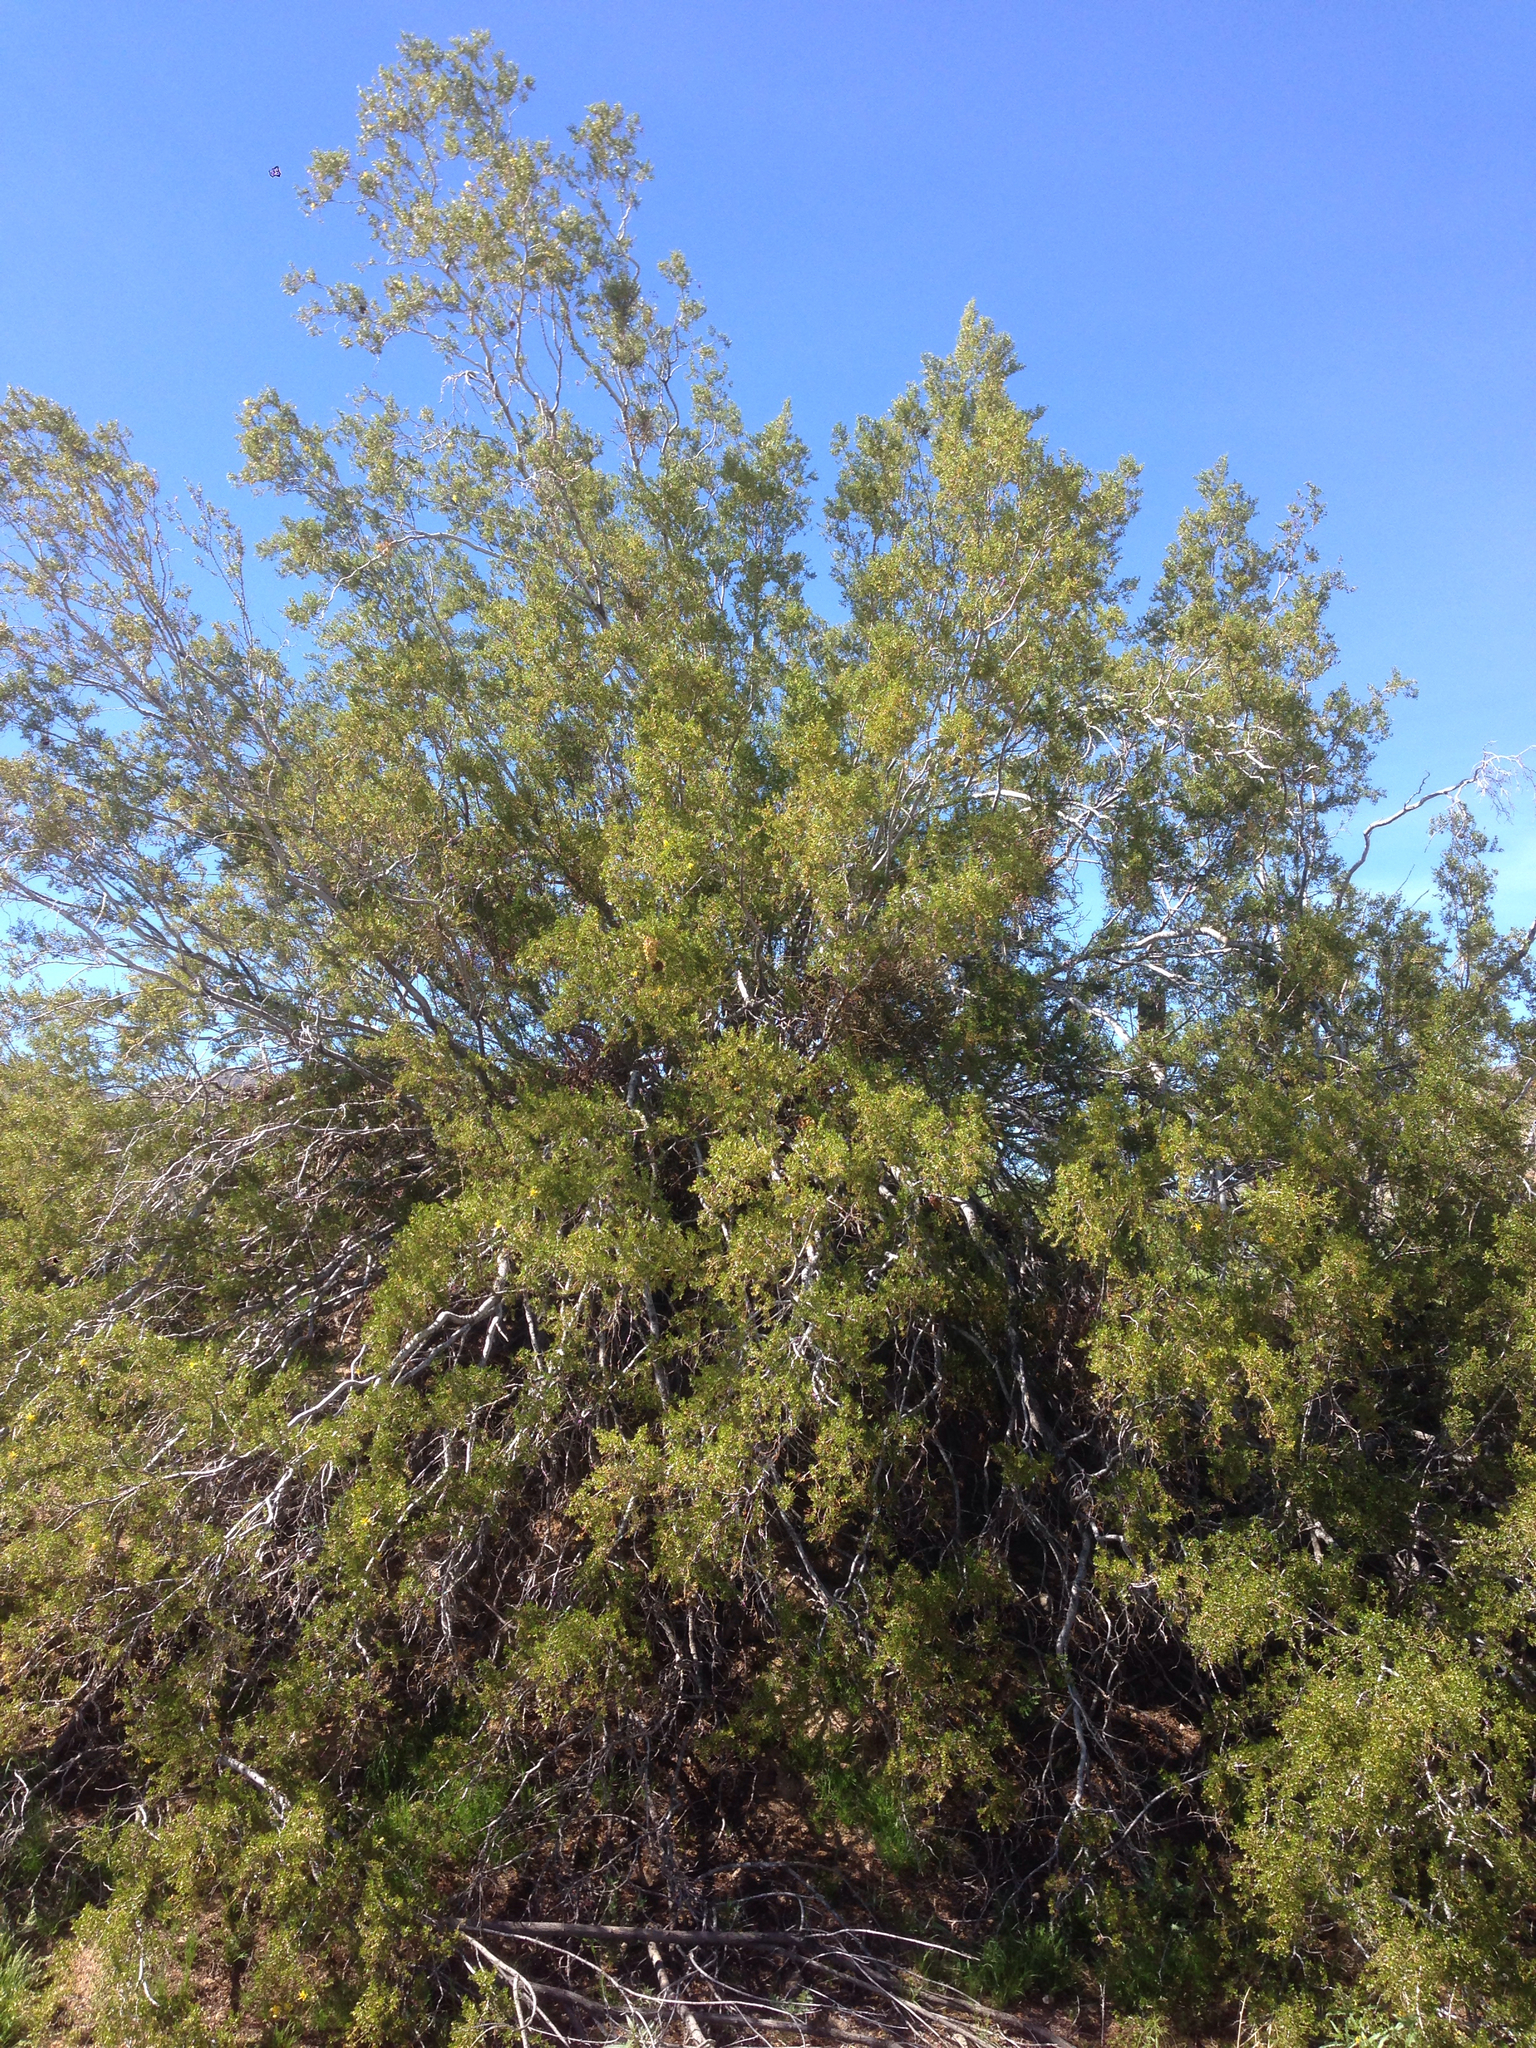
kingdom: Plantae
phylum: Tracheophyta
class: Magnoliopsida
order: Zygophyllales
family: Zygophyllaceae
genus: Larrea
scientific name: Larrea tridentata
